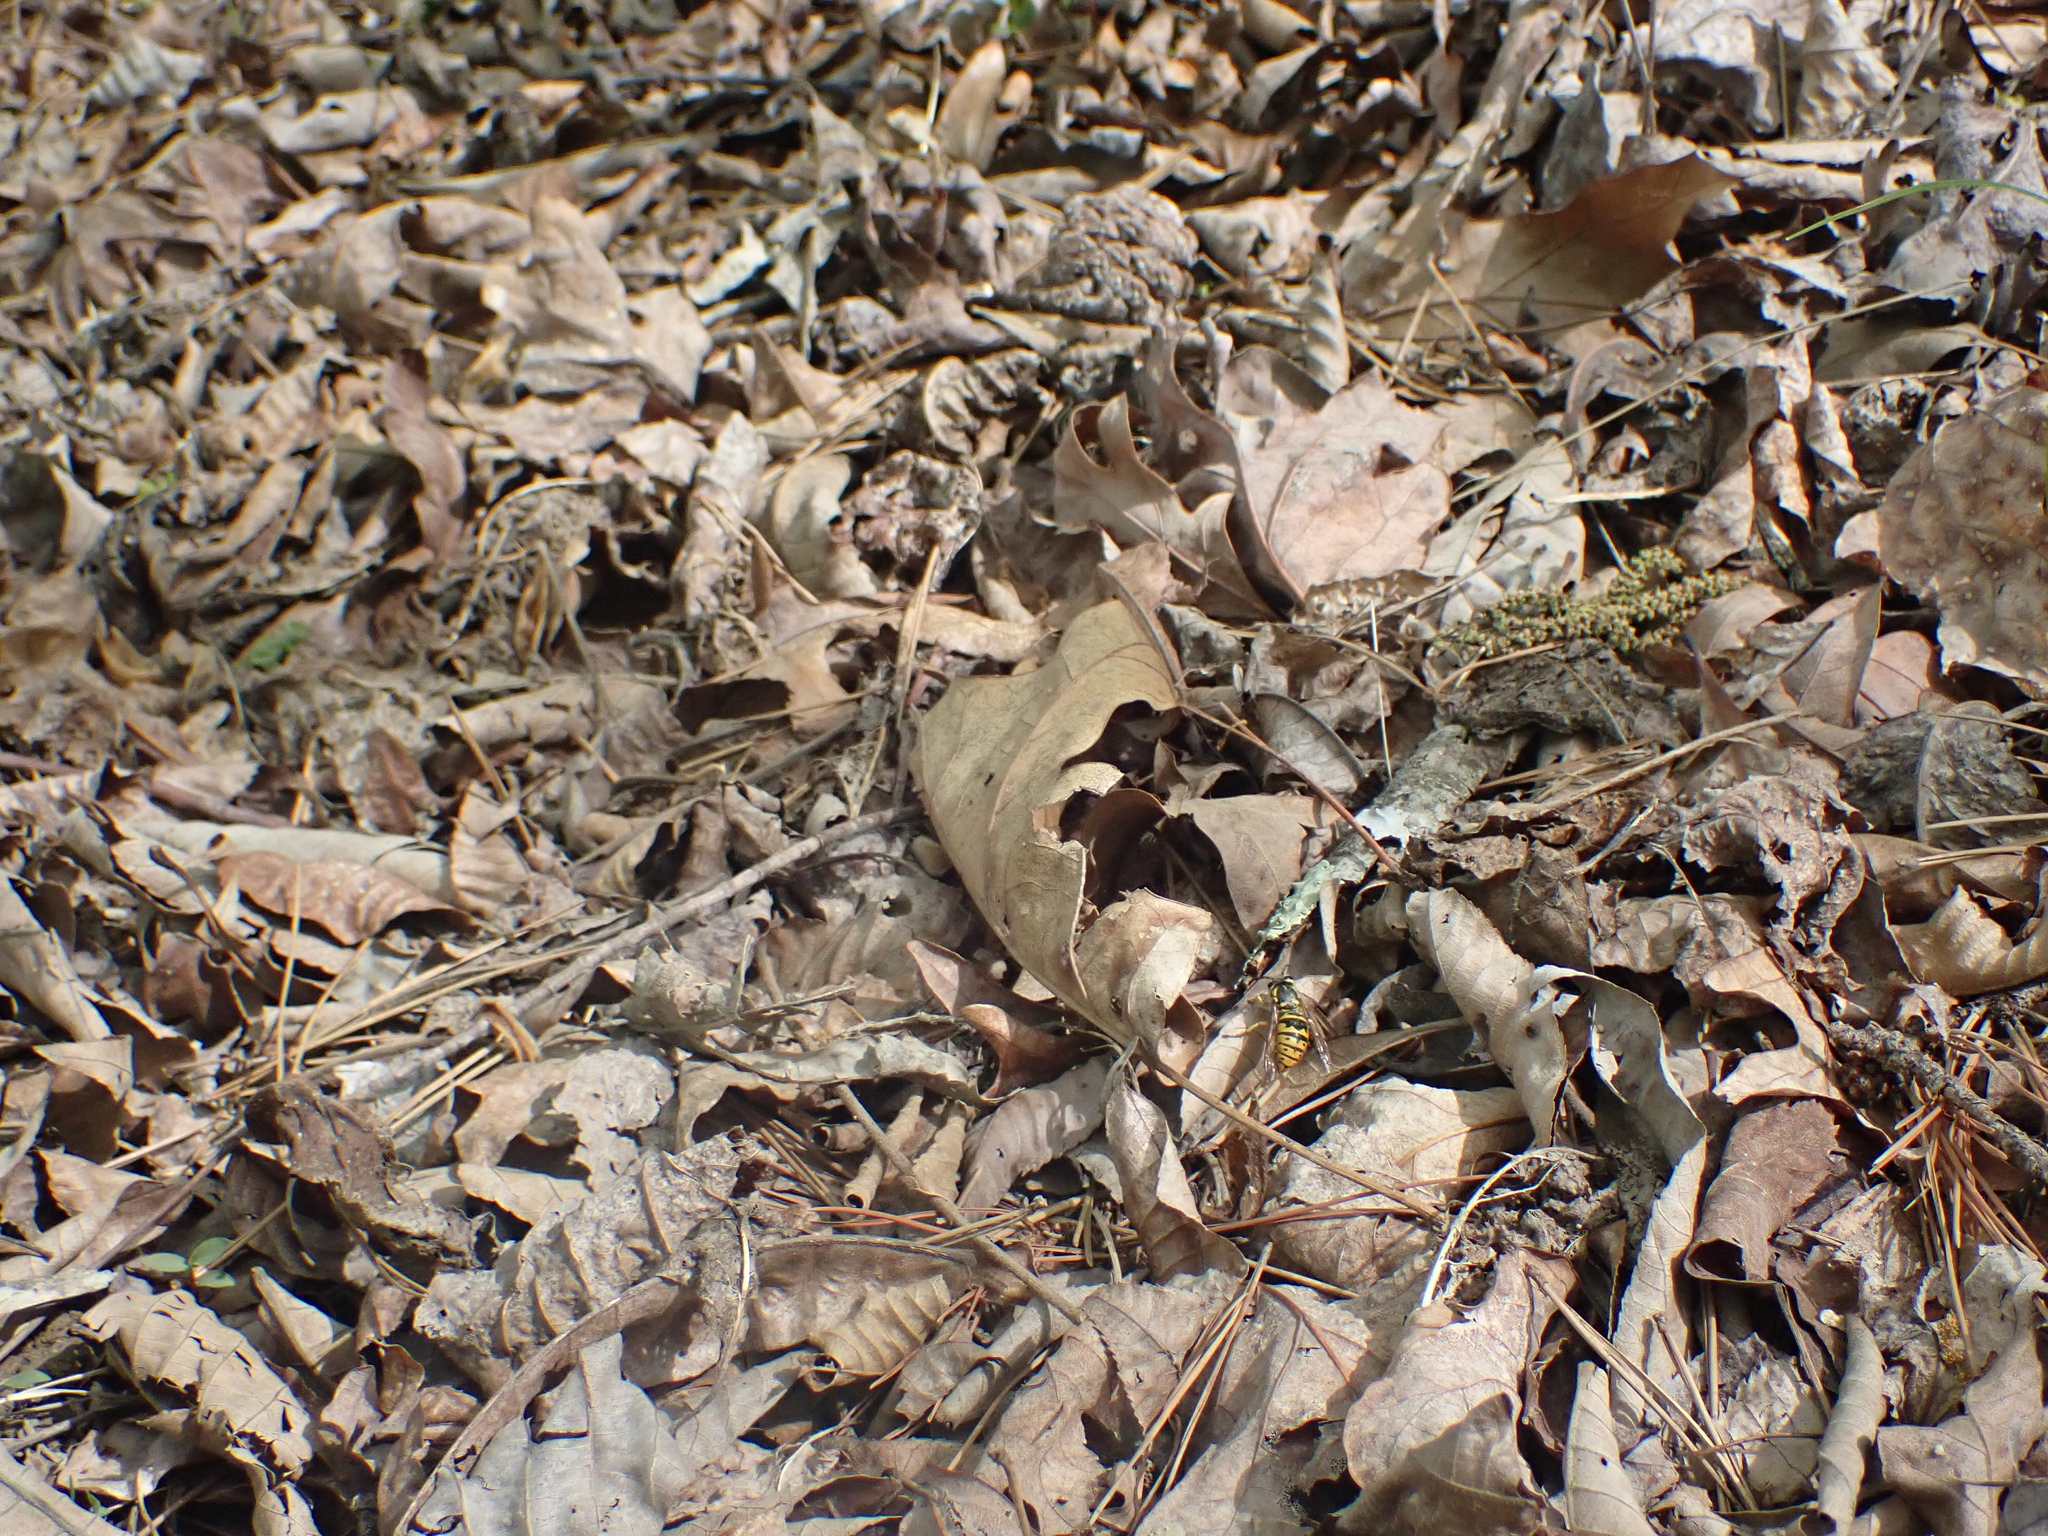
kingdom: Animalia
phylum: Arthropoda
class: Insecta
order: Hymenoptera
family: Vespidae
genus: Vespula
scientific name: Vespula maculifrons
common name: Eastern yellowjacket
